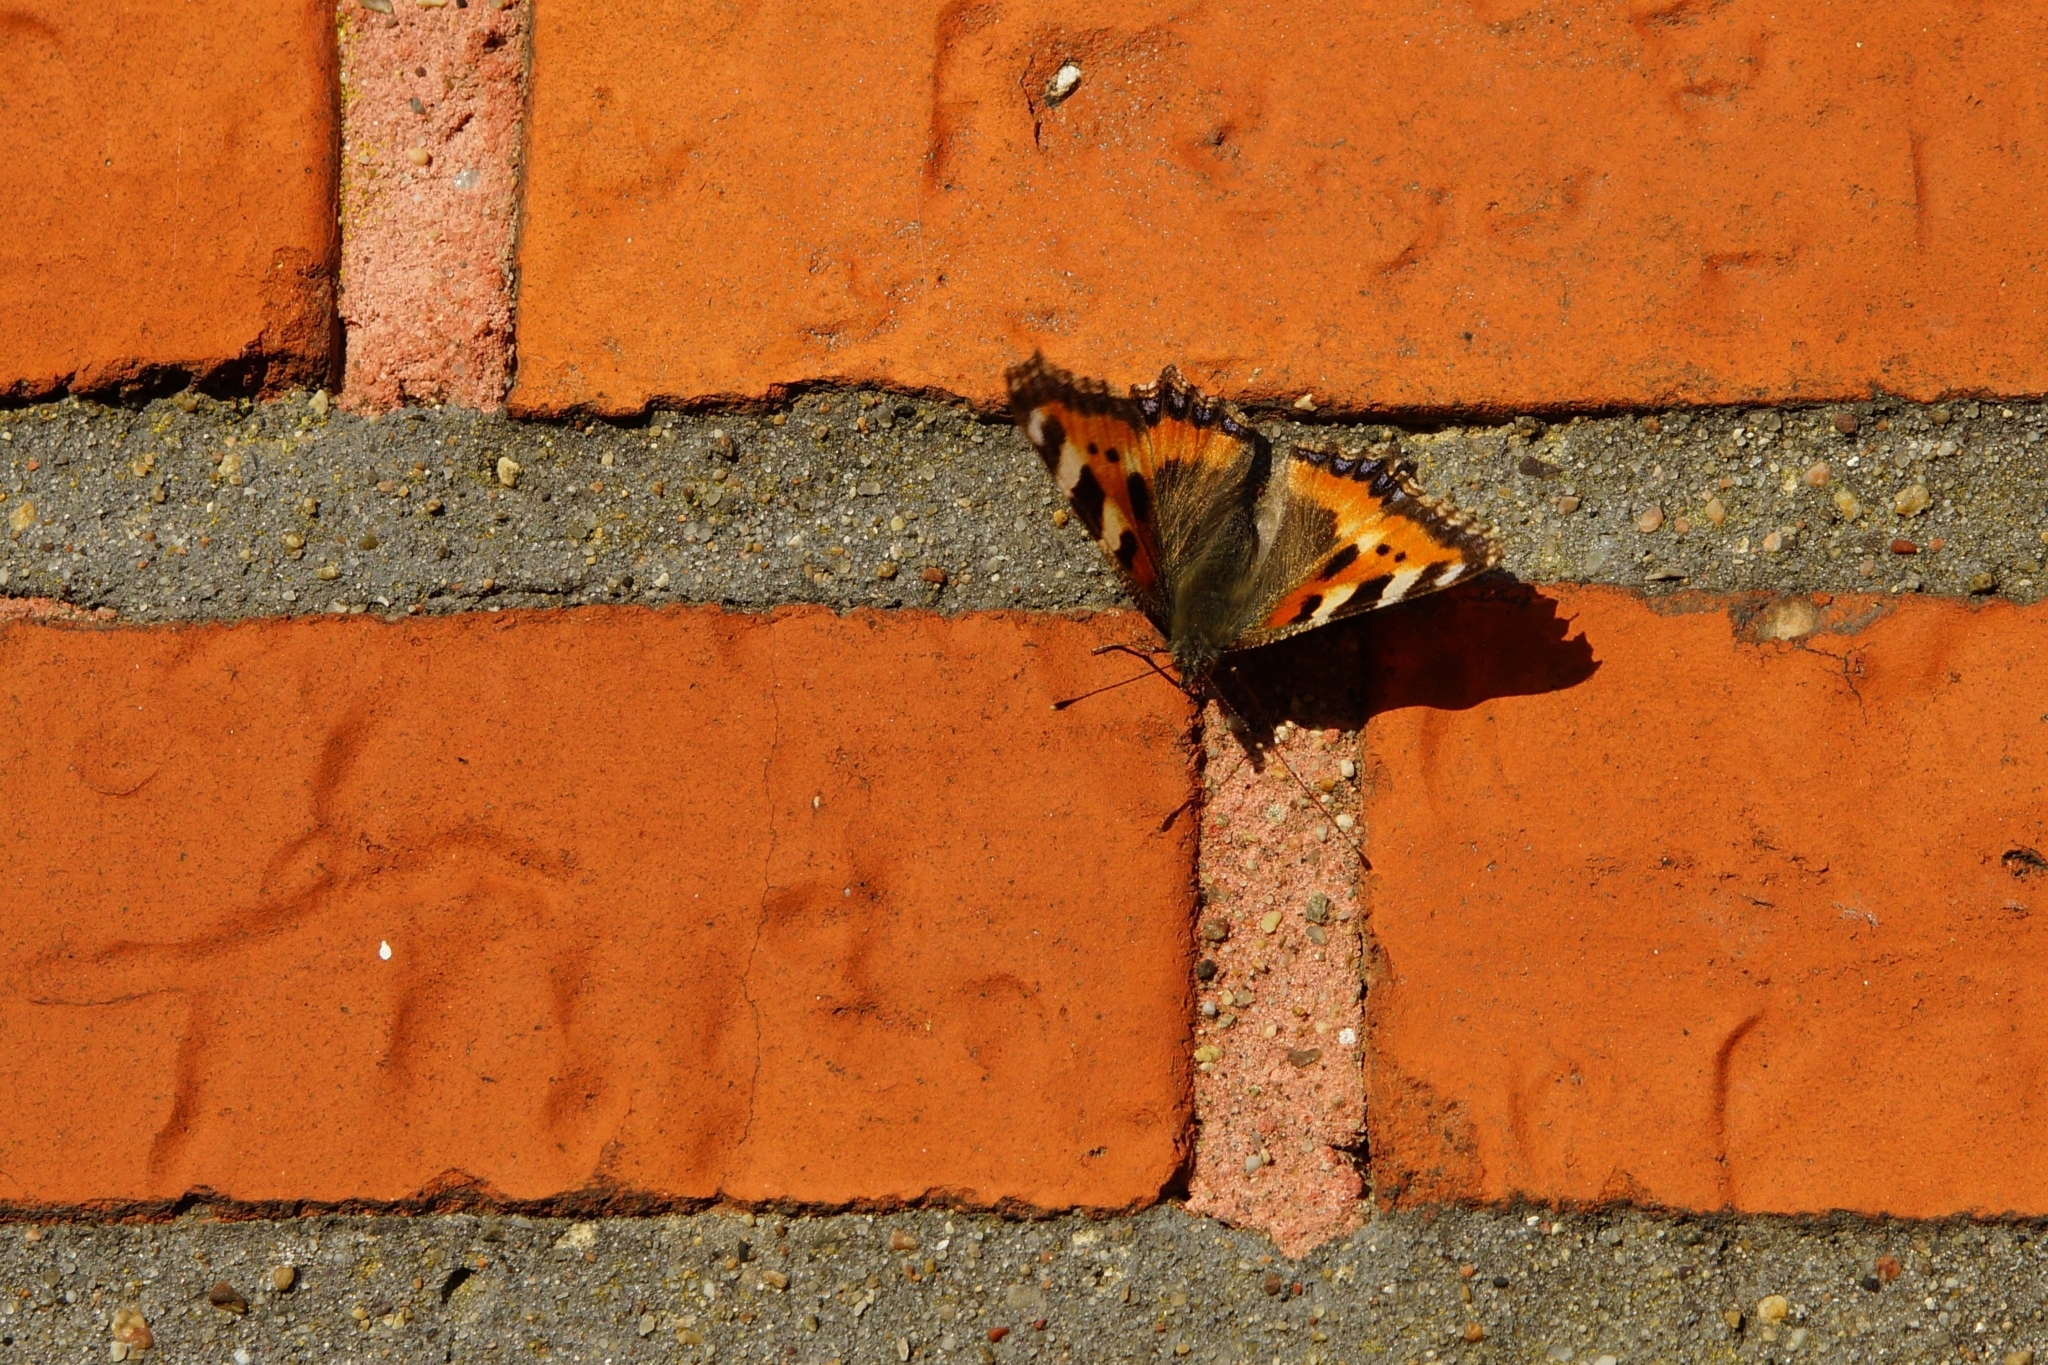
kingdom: Animalia
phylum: Arthropoda
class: Insecta
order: Lepidoptera
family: Nymphalidae
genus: Aglais
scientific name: Aglais urticae
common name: Small tortoiseshell
